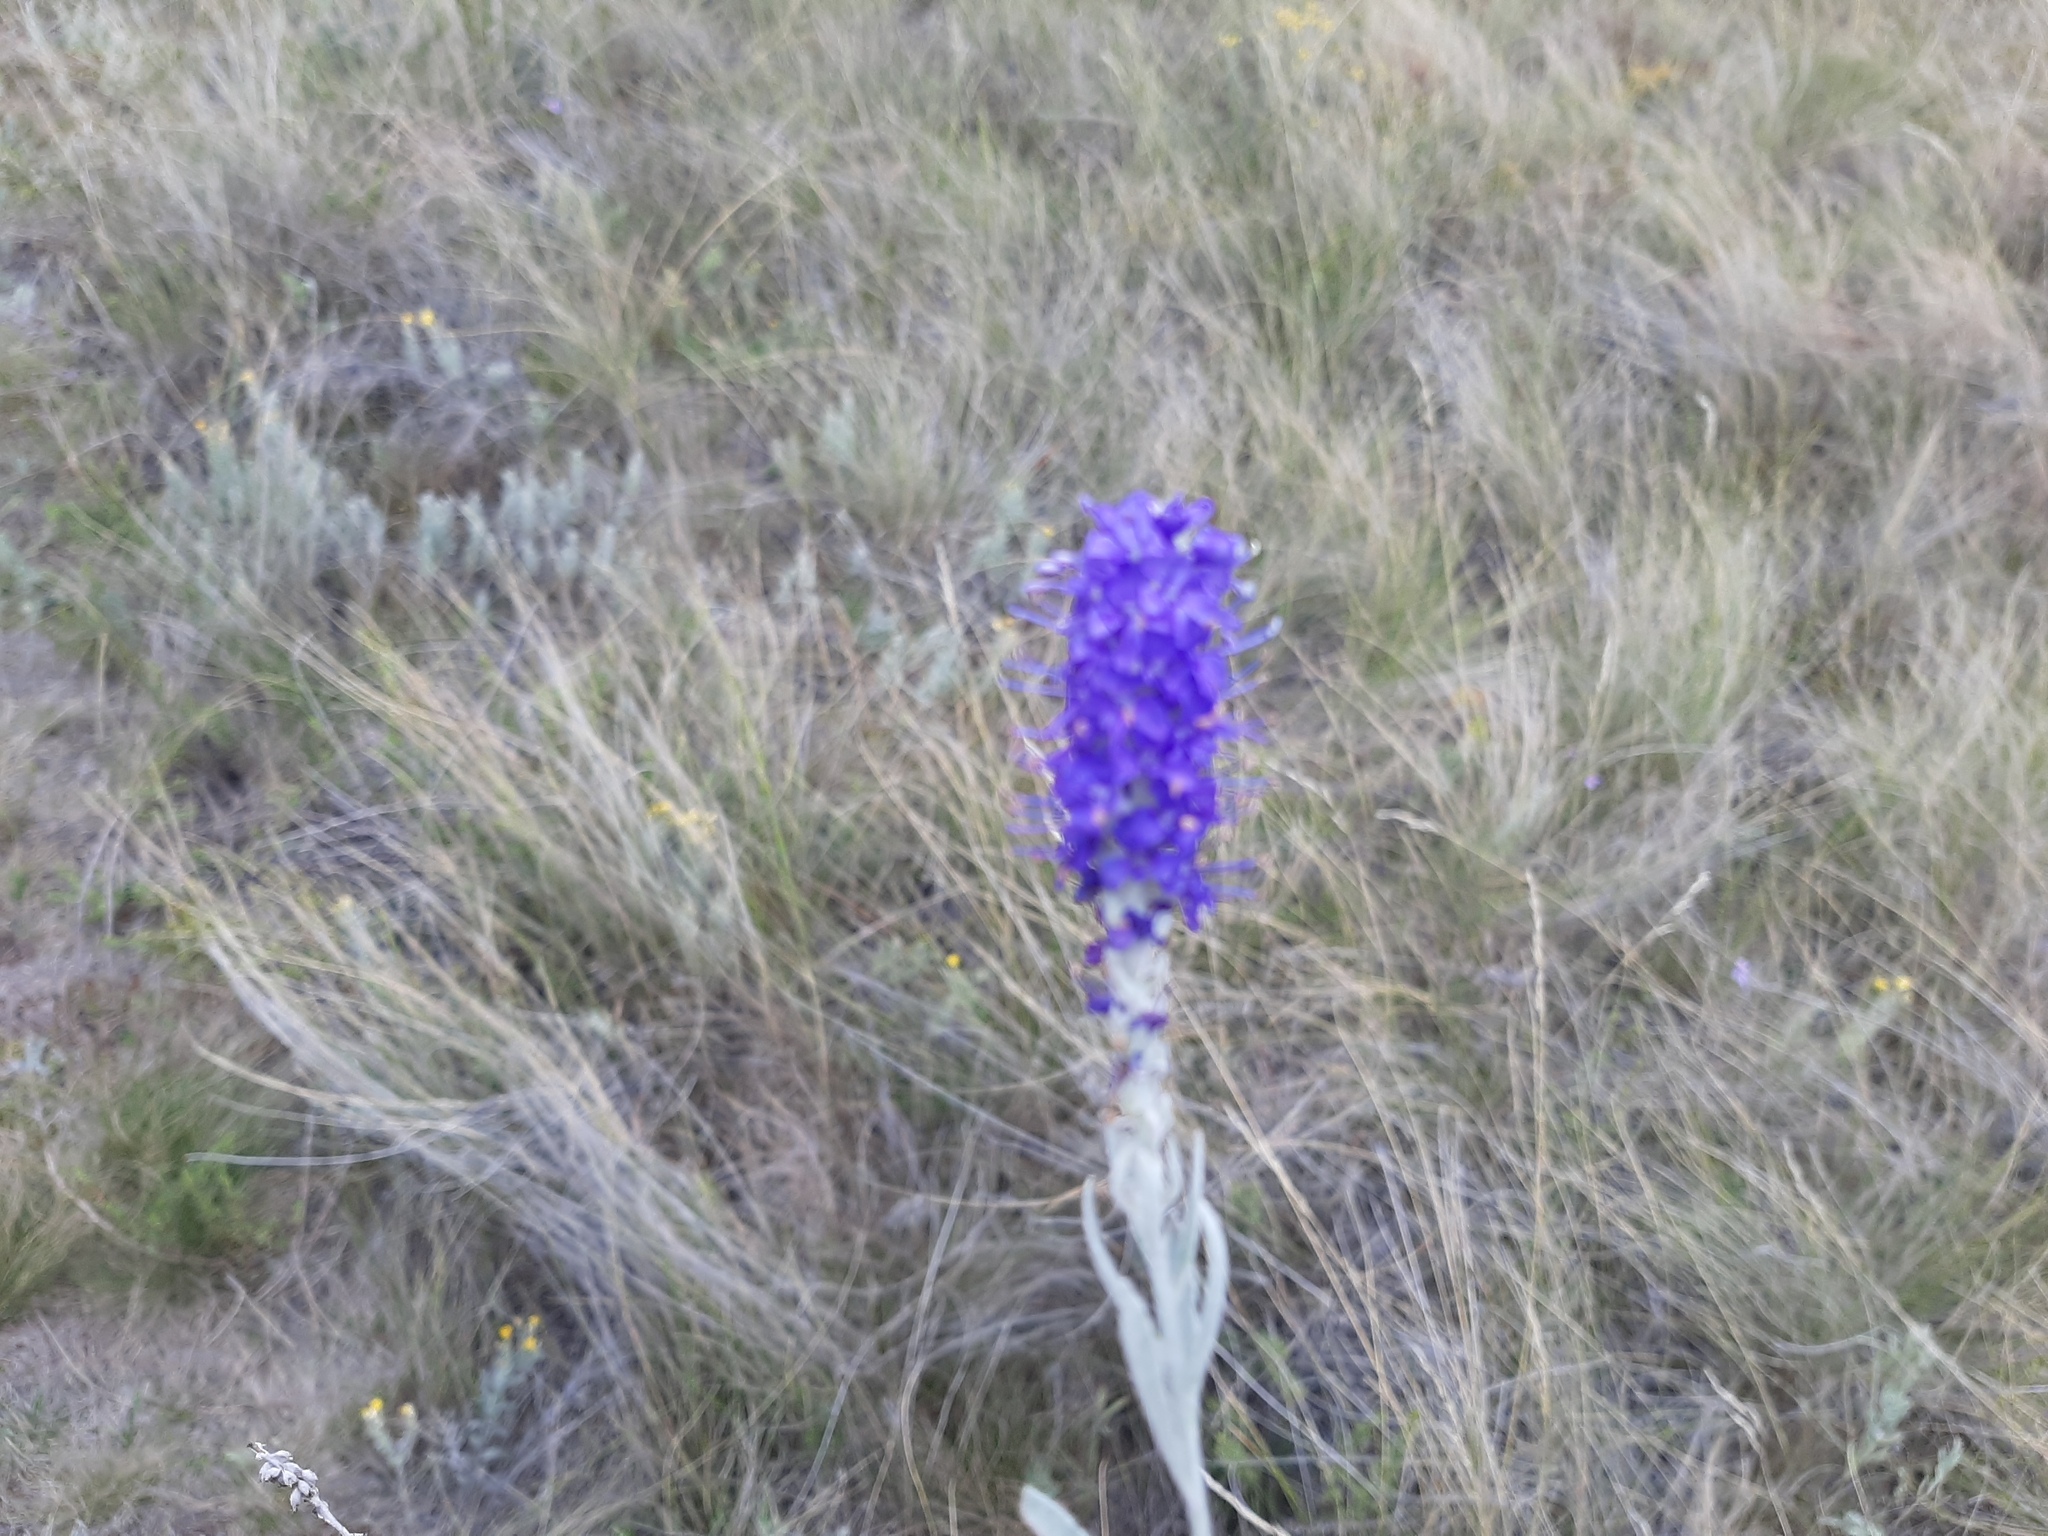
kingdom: Plantae
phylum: Tracheophyta
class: Magnoliopsida
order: Lamiales
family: Plantaginaceae
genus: Veronica
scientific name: Veronica incana
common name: Silver speedwell
